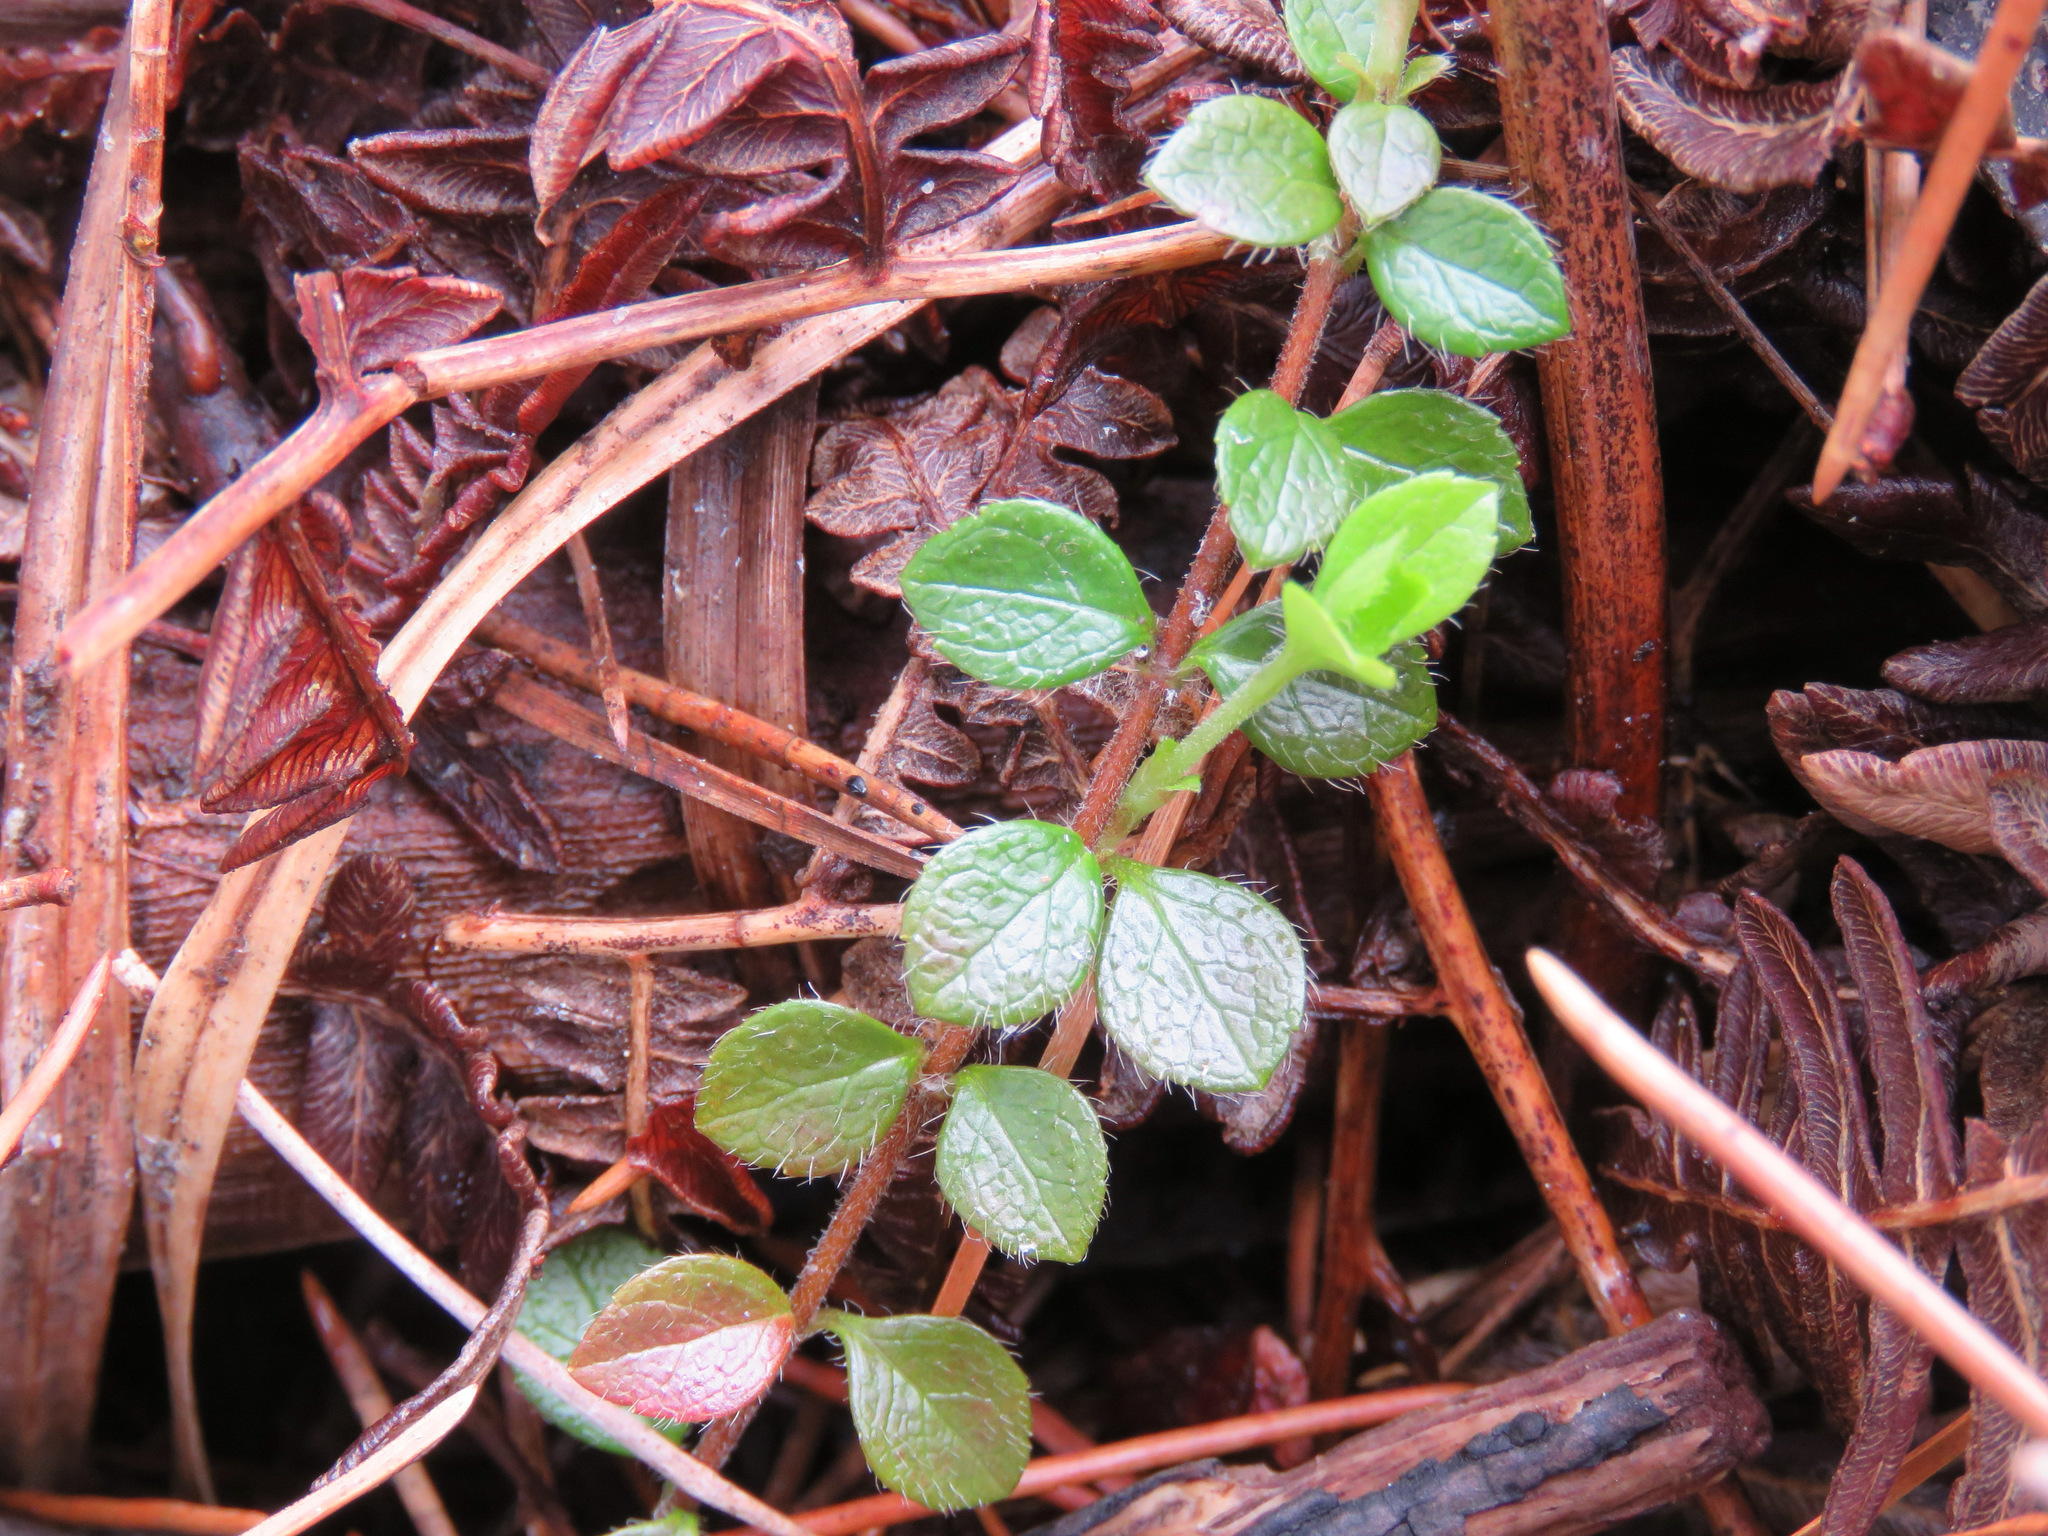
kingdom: Plantae
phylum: Tracheophyta
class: Magnoliopsida
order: Dipsacales
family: Caprifoliaceae
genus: Linnaea
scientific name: Linnaea borealis
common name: Twinflower
